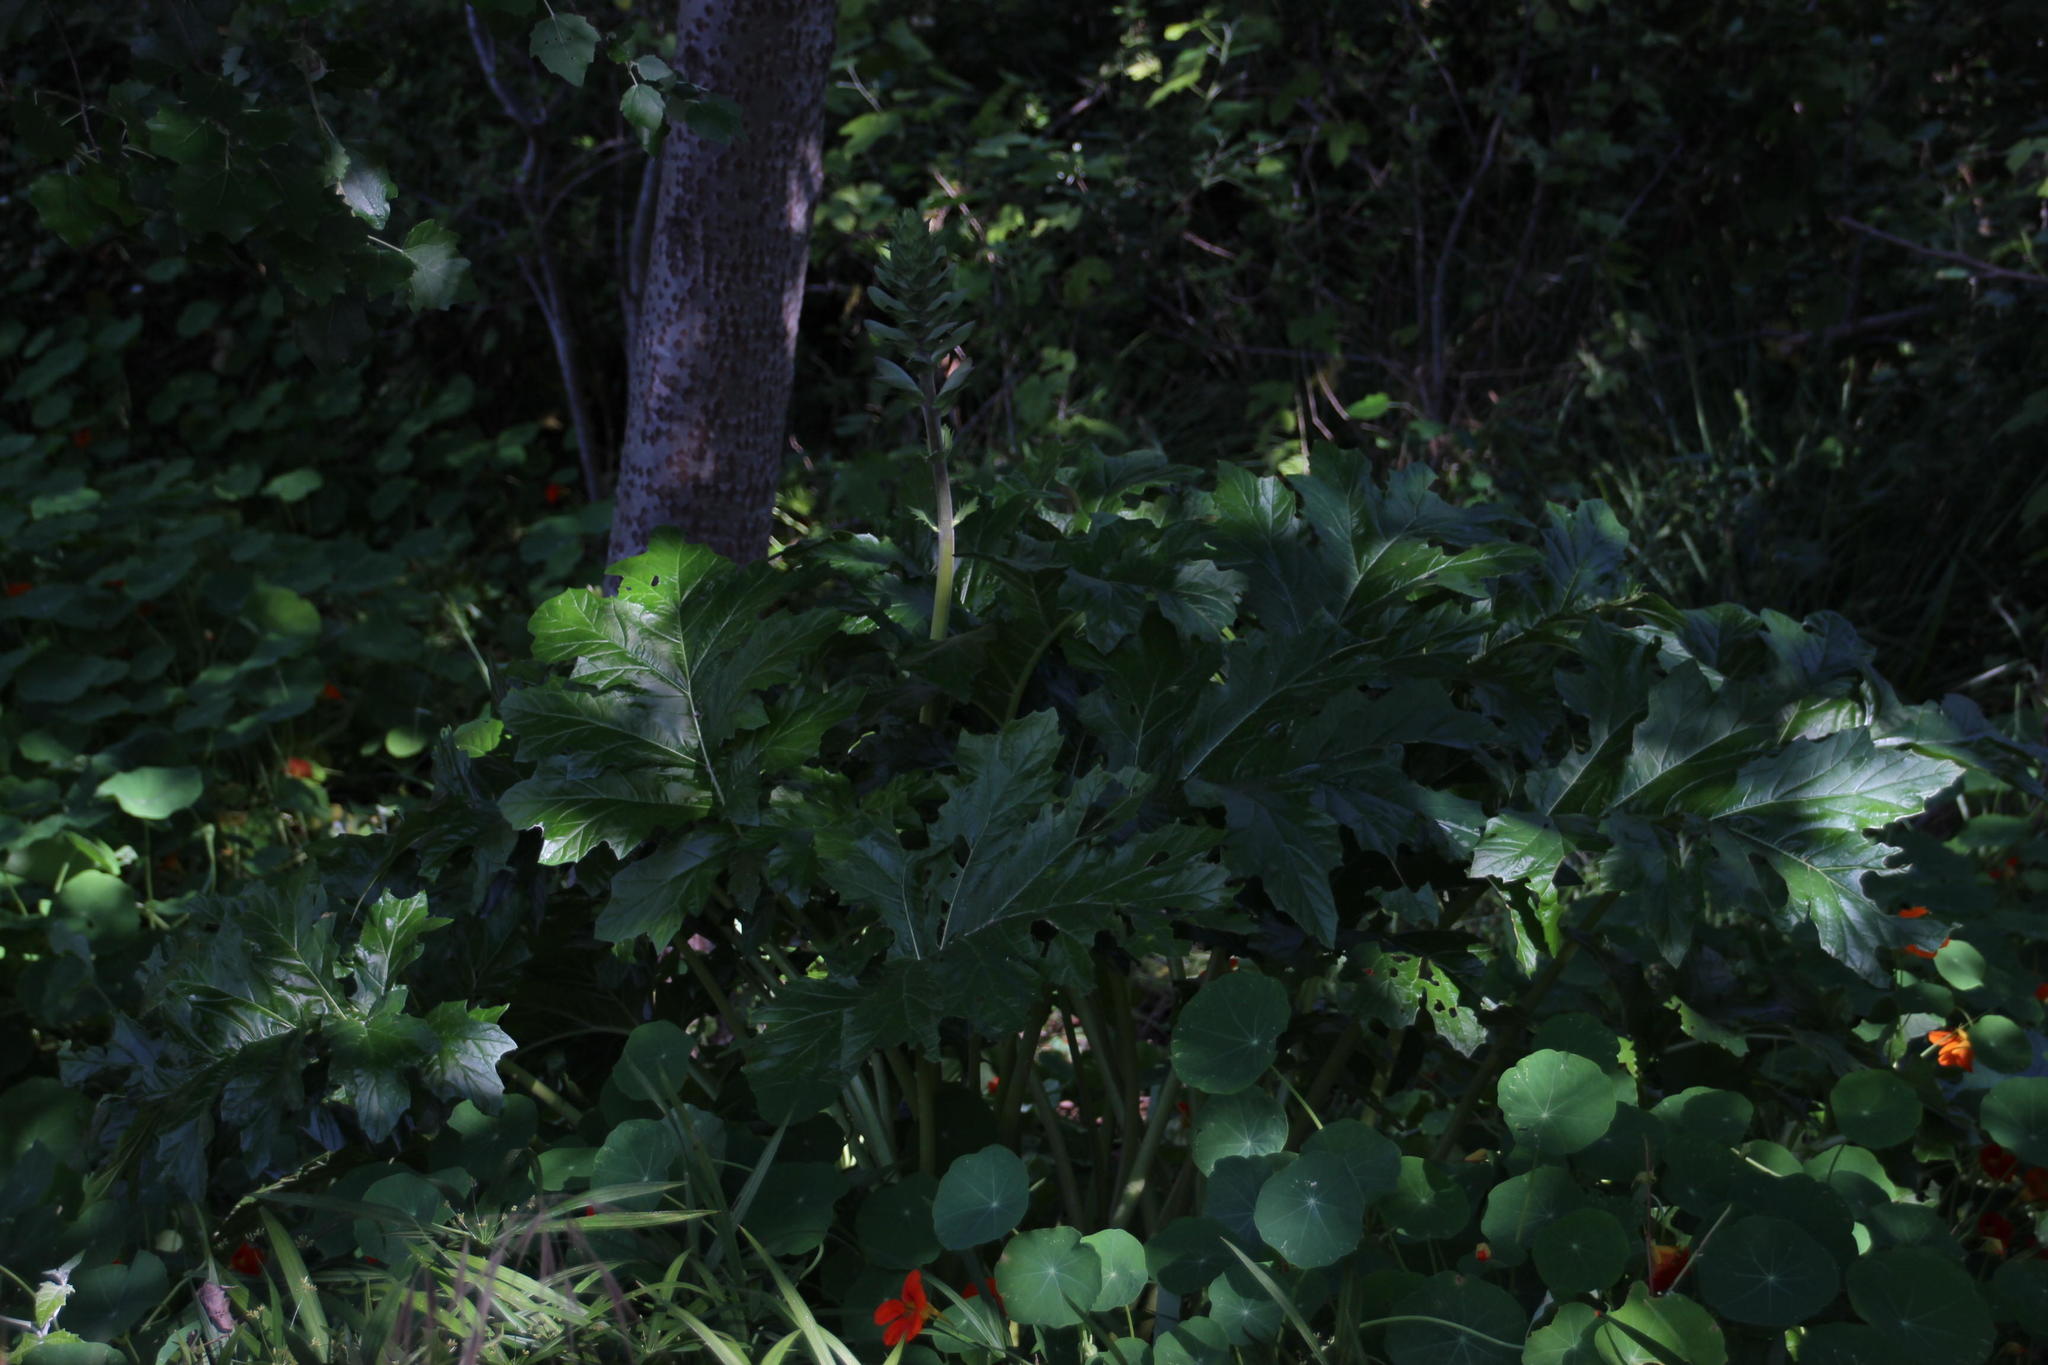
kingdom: Plantae
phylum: Tracheophyta
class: Magnoliopsida
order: Lamiales
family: Acanthaceae
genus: Acanthus
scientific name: Acanthus mollis
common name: Bear's-breech
